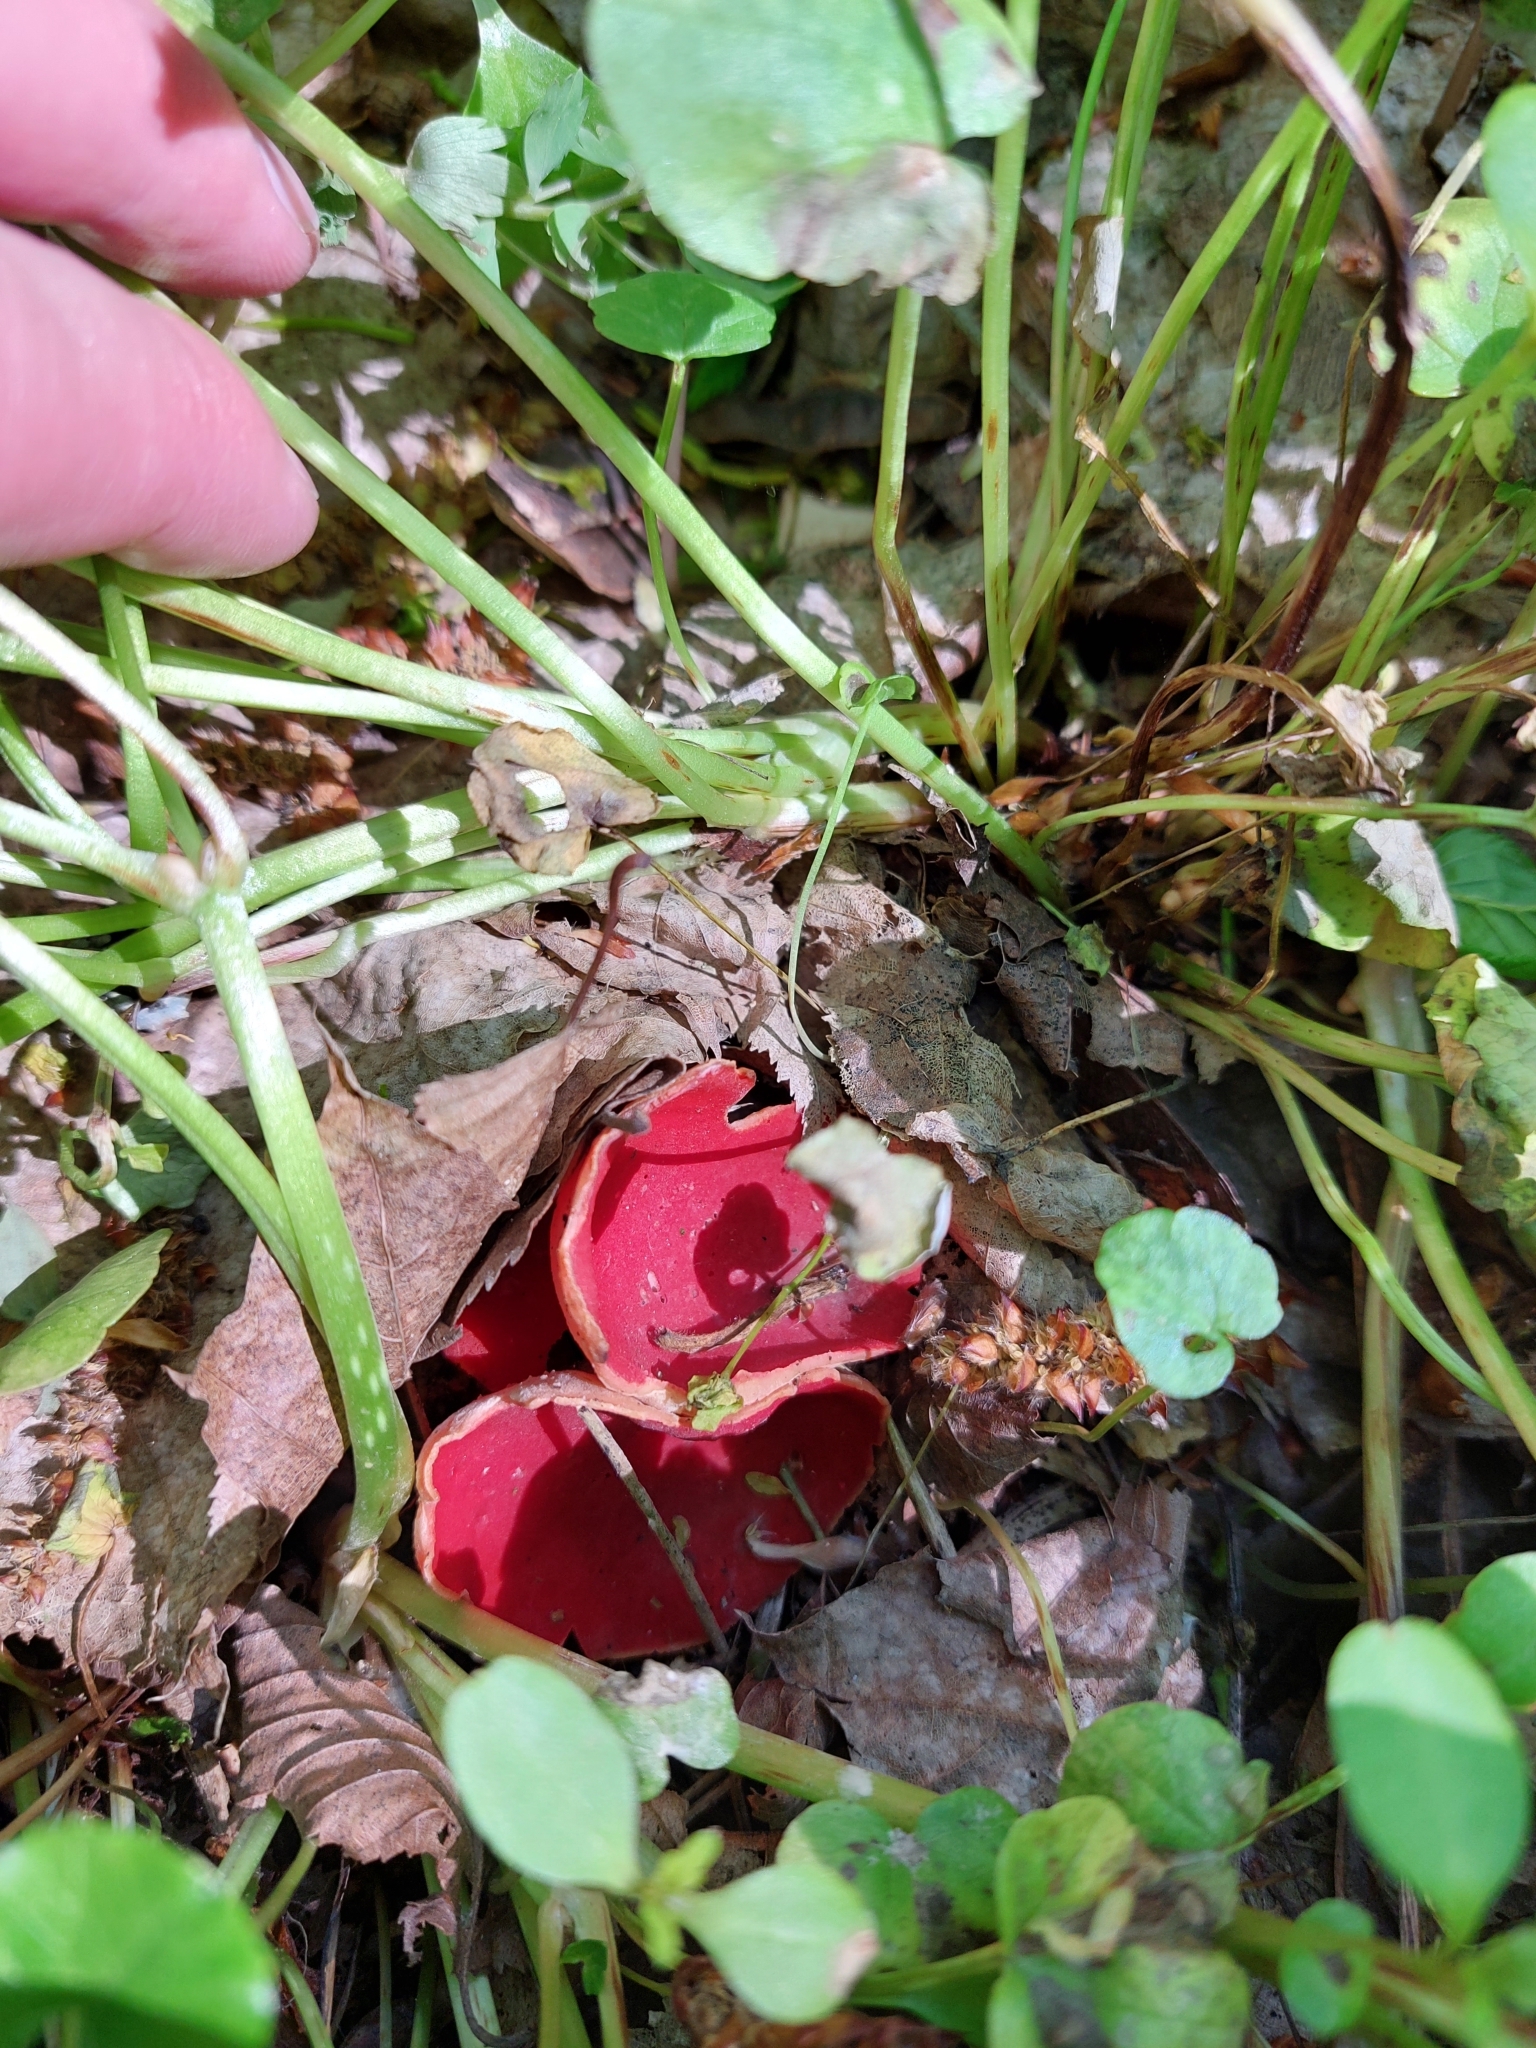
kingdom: Fungi
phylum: Ascomycota
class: Pezizomycetes
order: Pezizales
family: Sarcoscyphaceae
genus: Sarcoscypha
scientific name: Sarcoscypha
